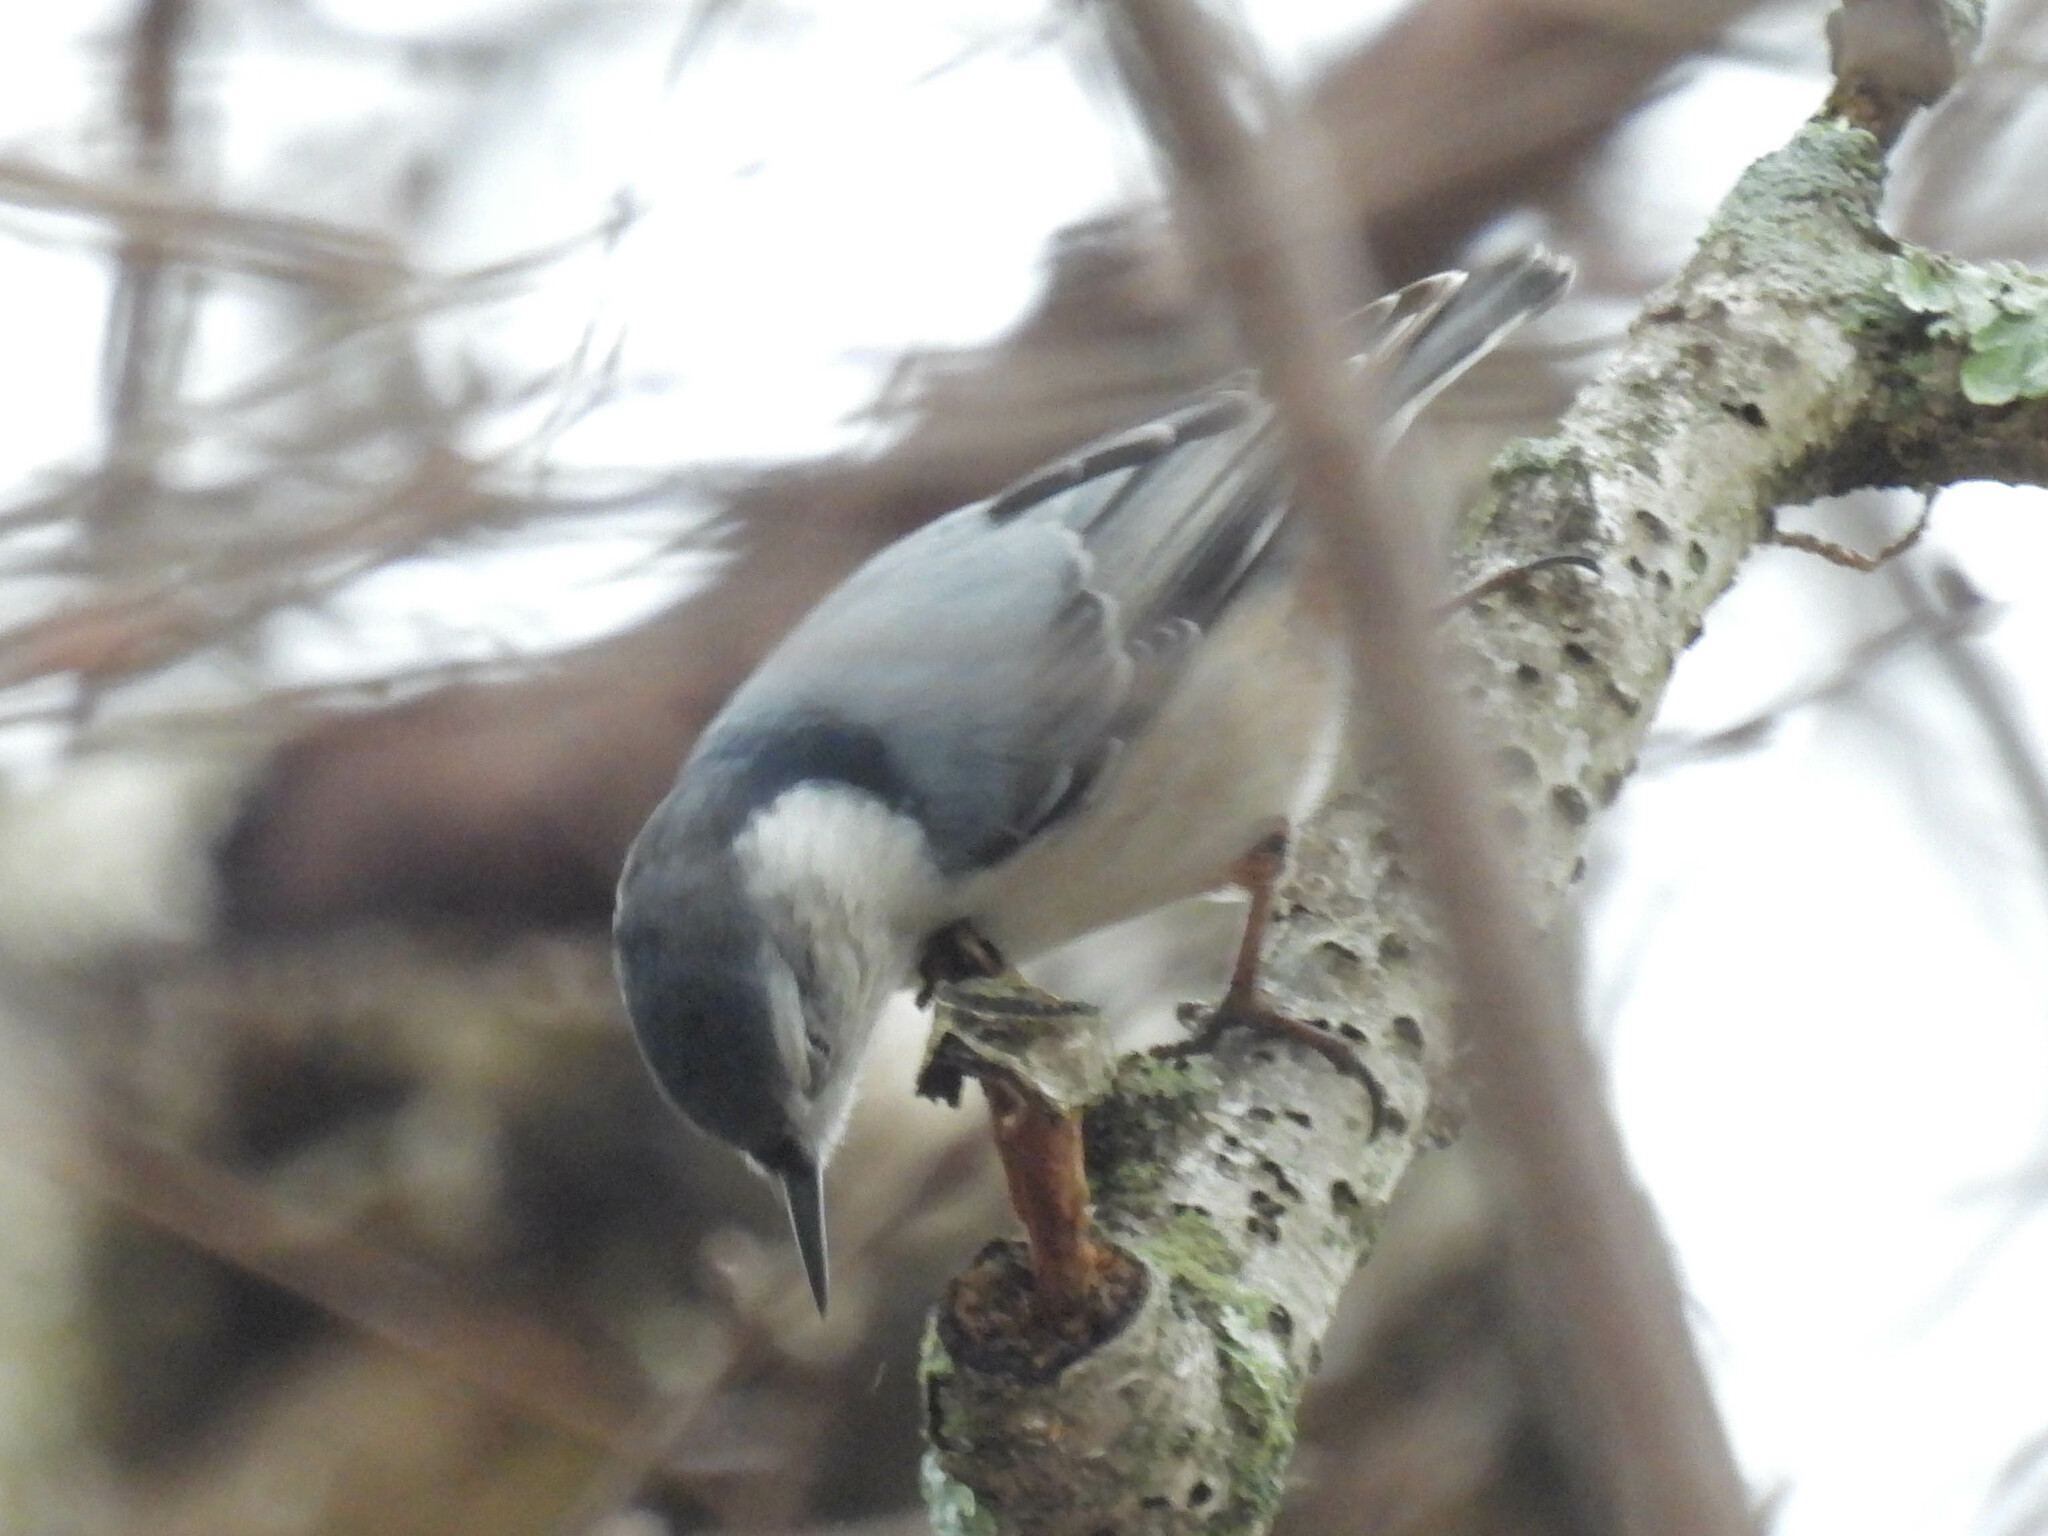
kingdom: Animalia
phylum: Chordata
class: Aves
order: Passeriformes
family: Sittidae
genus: Sitta
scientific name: Sitta carolinensis
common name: White-breasted nuthatch
